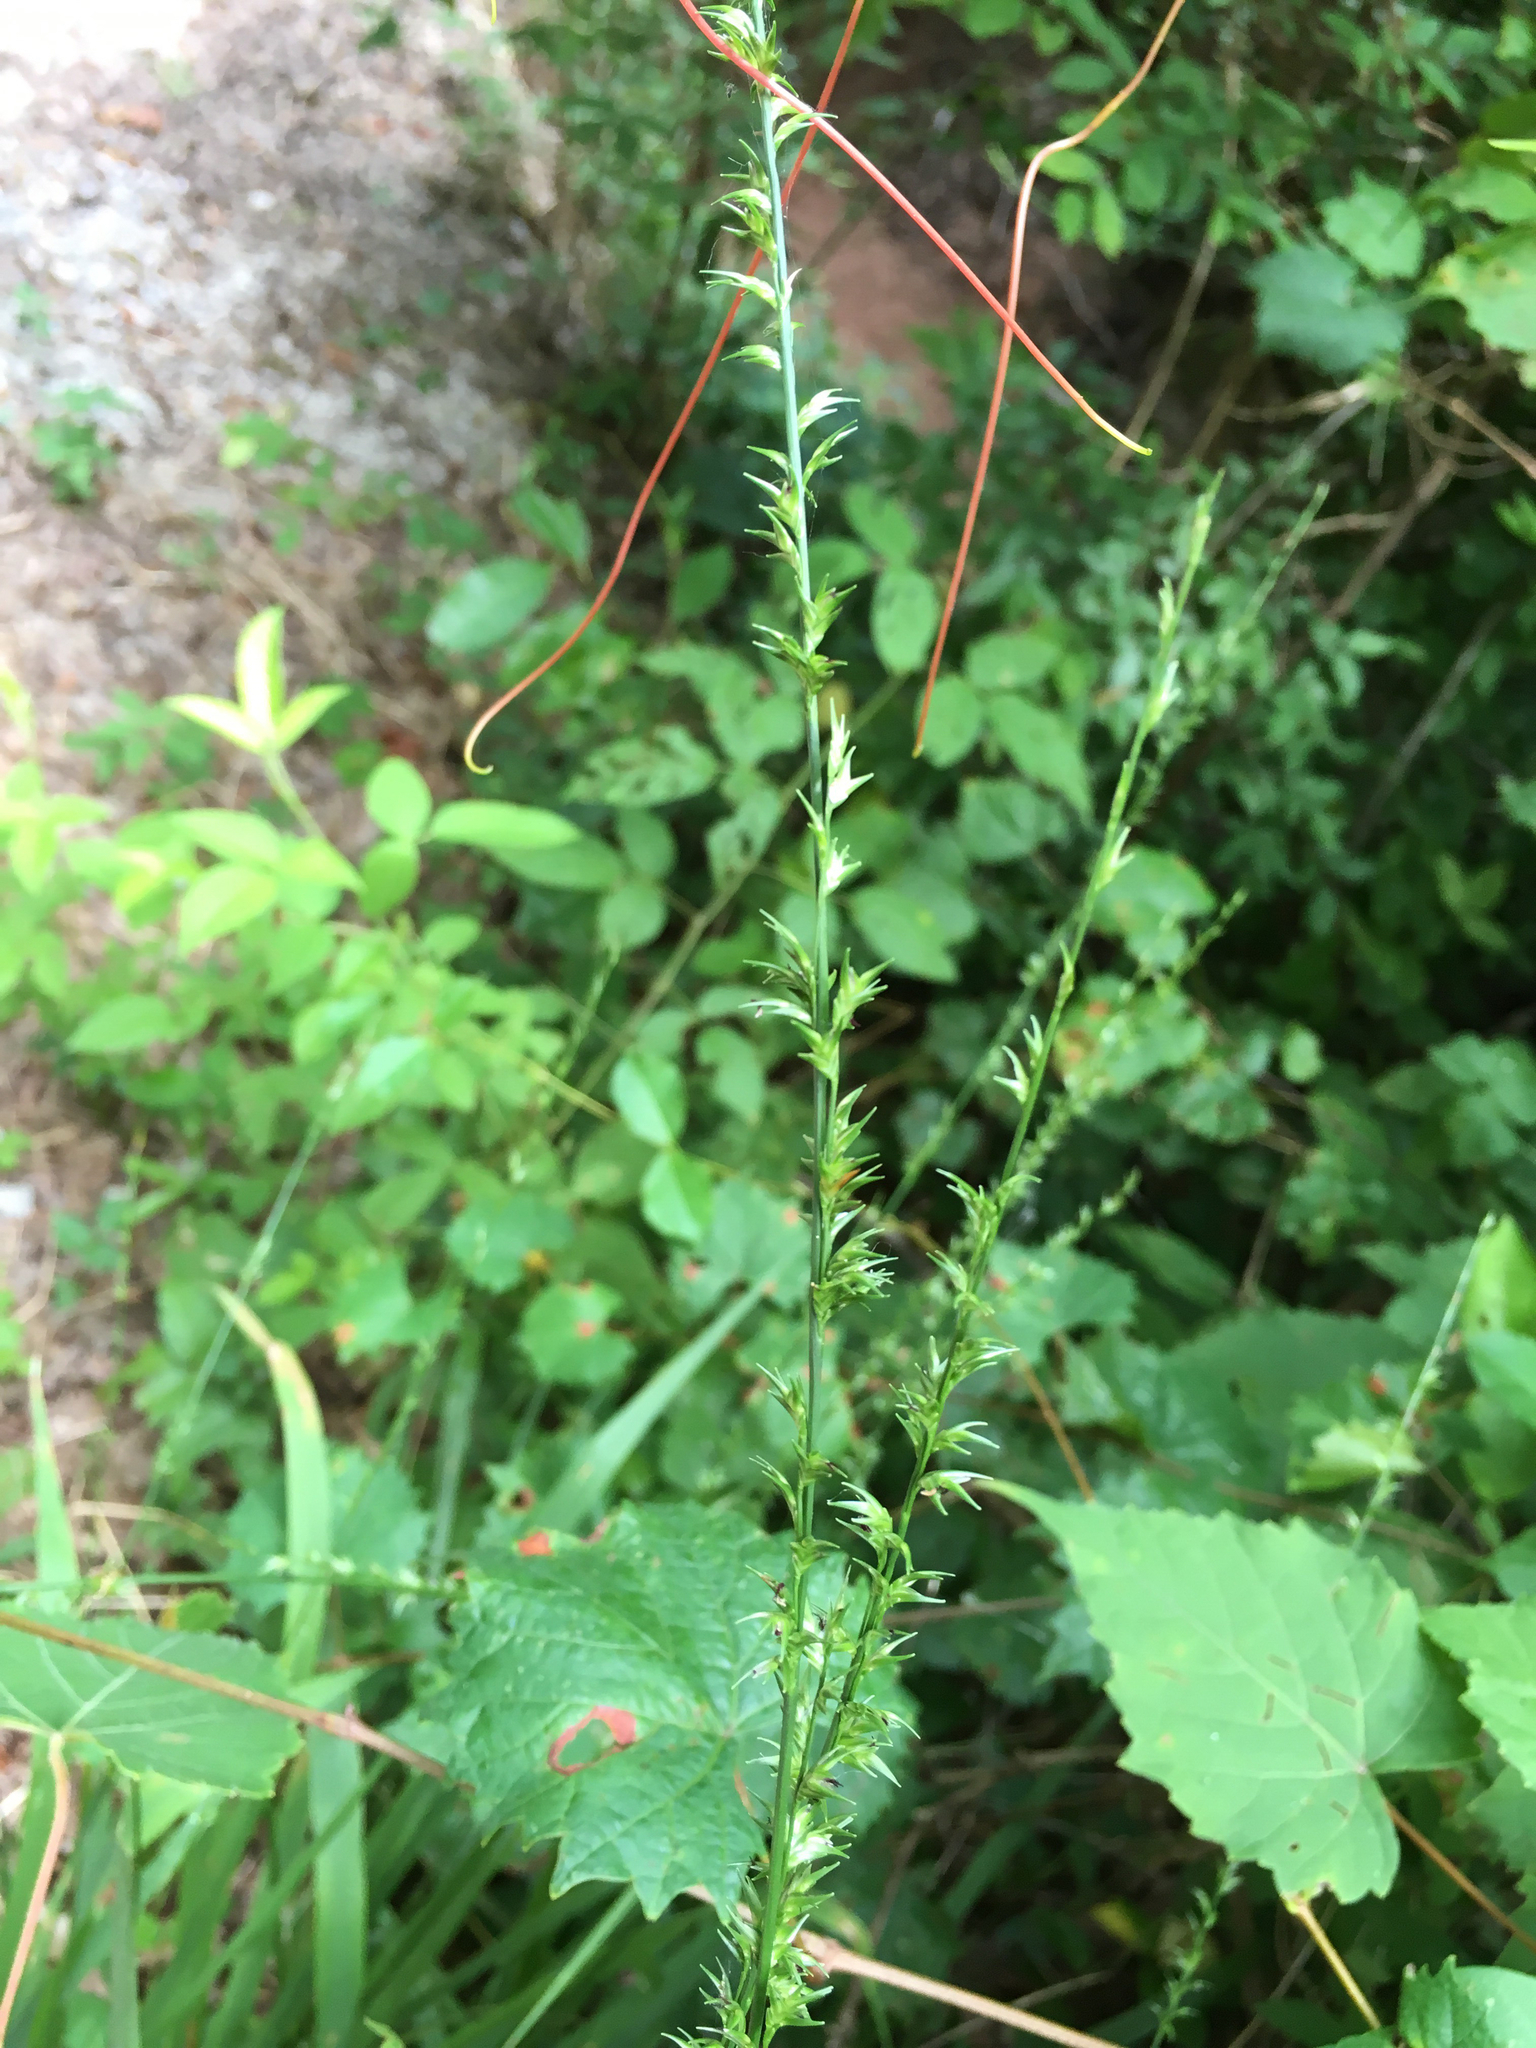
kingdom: Plantae
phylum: Tracheophyta
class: Liliopsida
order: Poales
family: Poaceae
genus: Chasmanthium
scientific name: Chasmanthium laxum
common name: Slender chasmanthium
